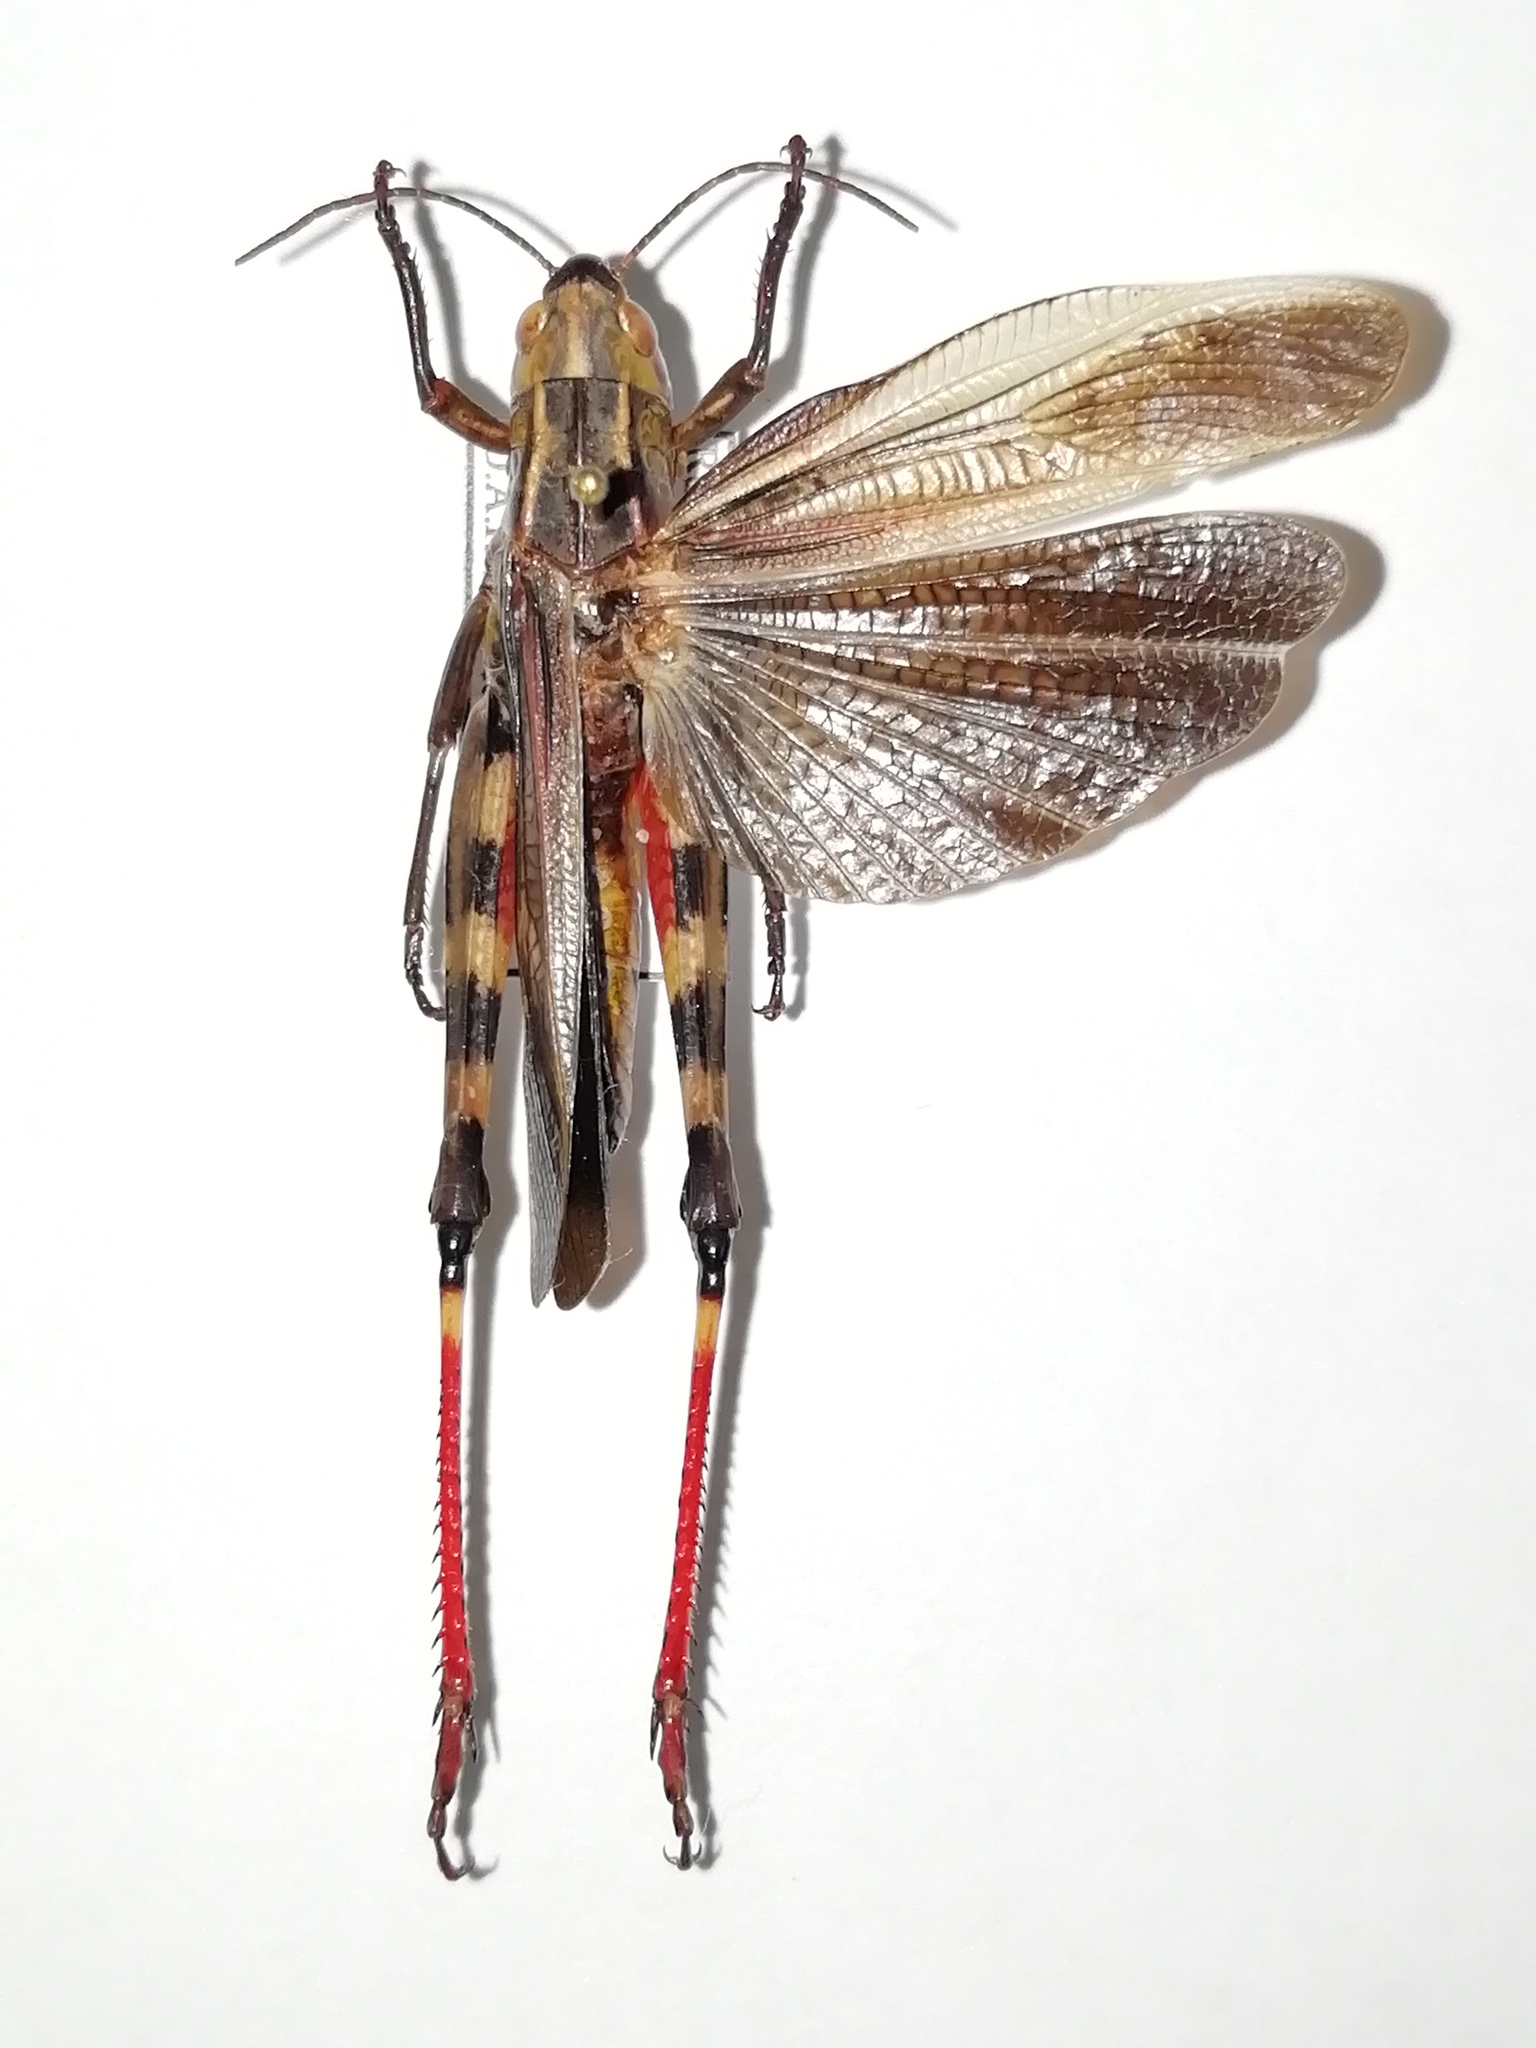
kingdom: Animalia
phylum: Arthropoda
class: Insecta
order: Orthoptera
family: Acrididae
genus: Arcyptera
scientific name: Arcyptera fusca
